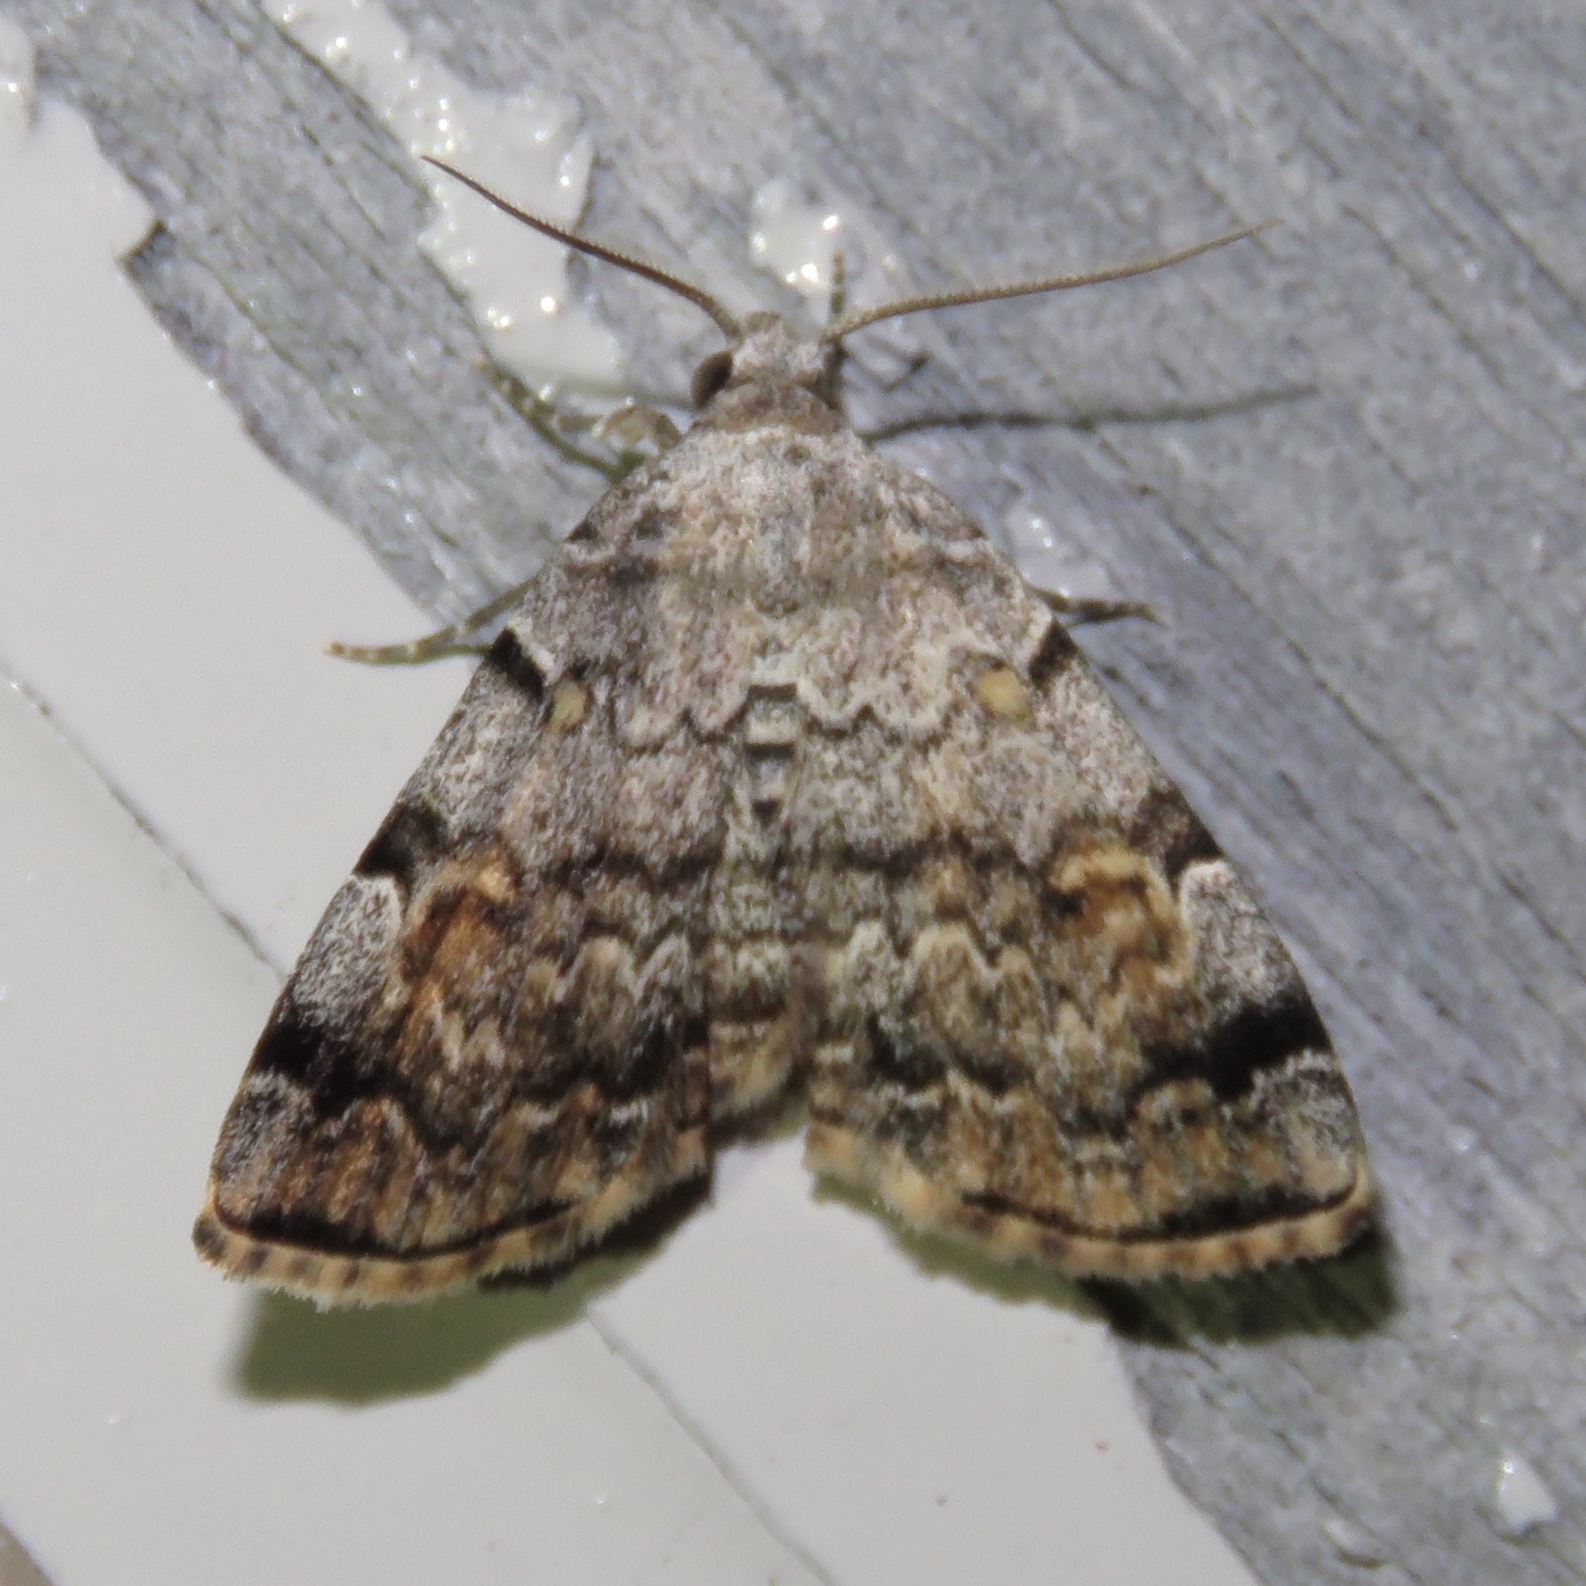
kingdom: Animalia
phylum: Arthropoda
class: Insecta
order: Lepidoptera
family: Erebidae
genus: Idia
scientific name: Idia americalis
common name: American idia moth
